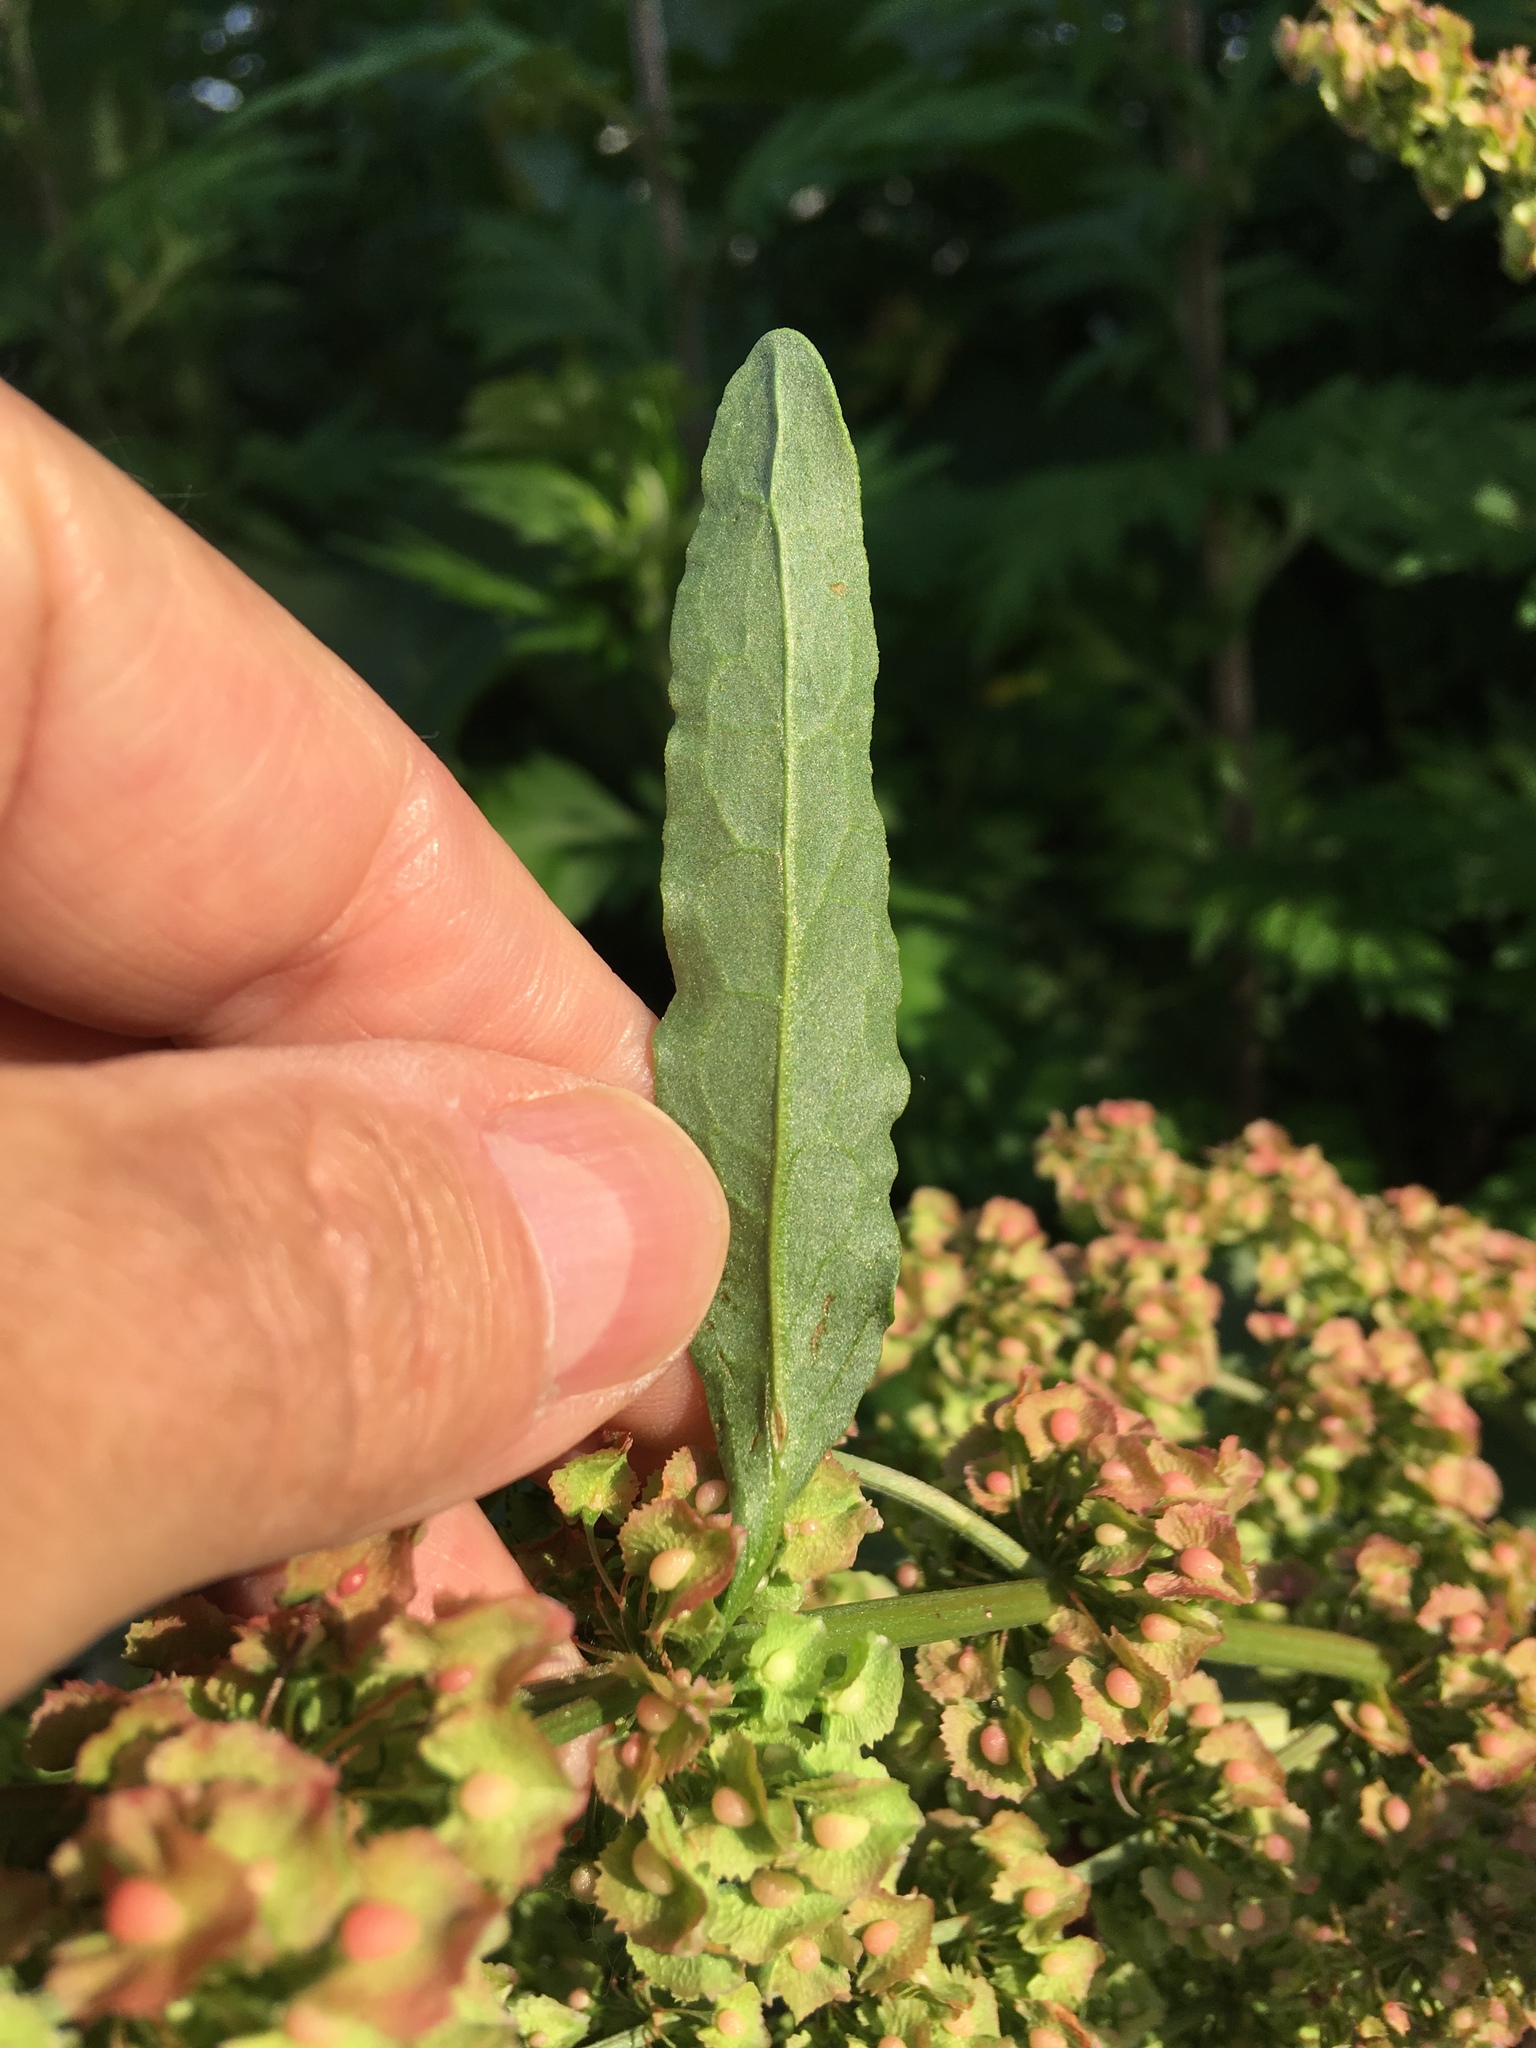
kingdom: Plantae
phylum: Tracheophyta
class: Magnoliopsida
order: Caryophyllales
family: Polygonaceae
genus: Rumex
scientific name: Rumex cristatus
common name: Greek dock
